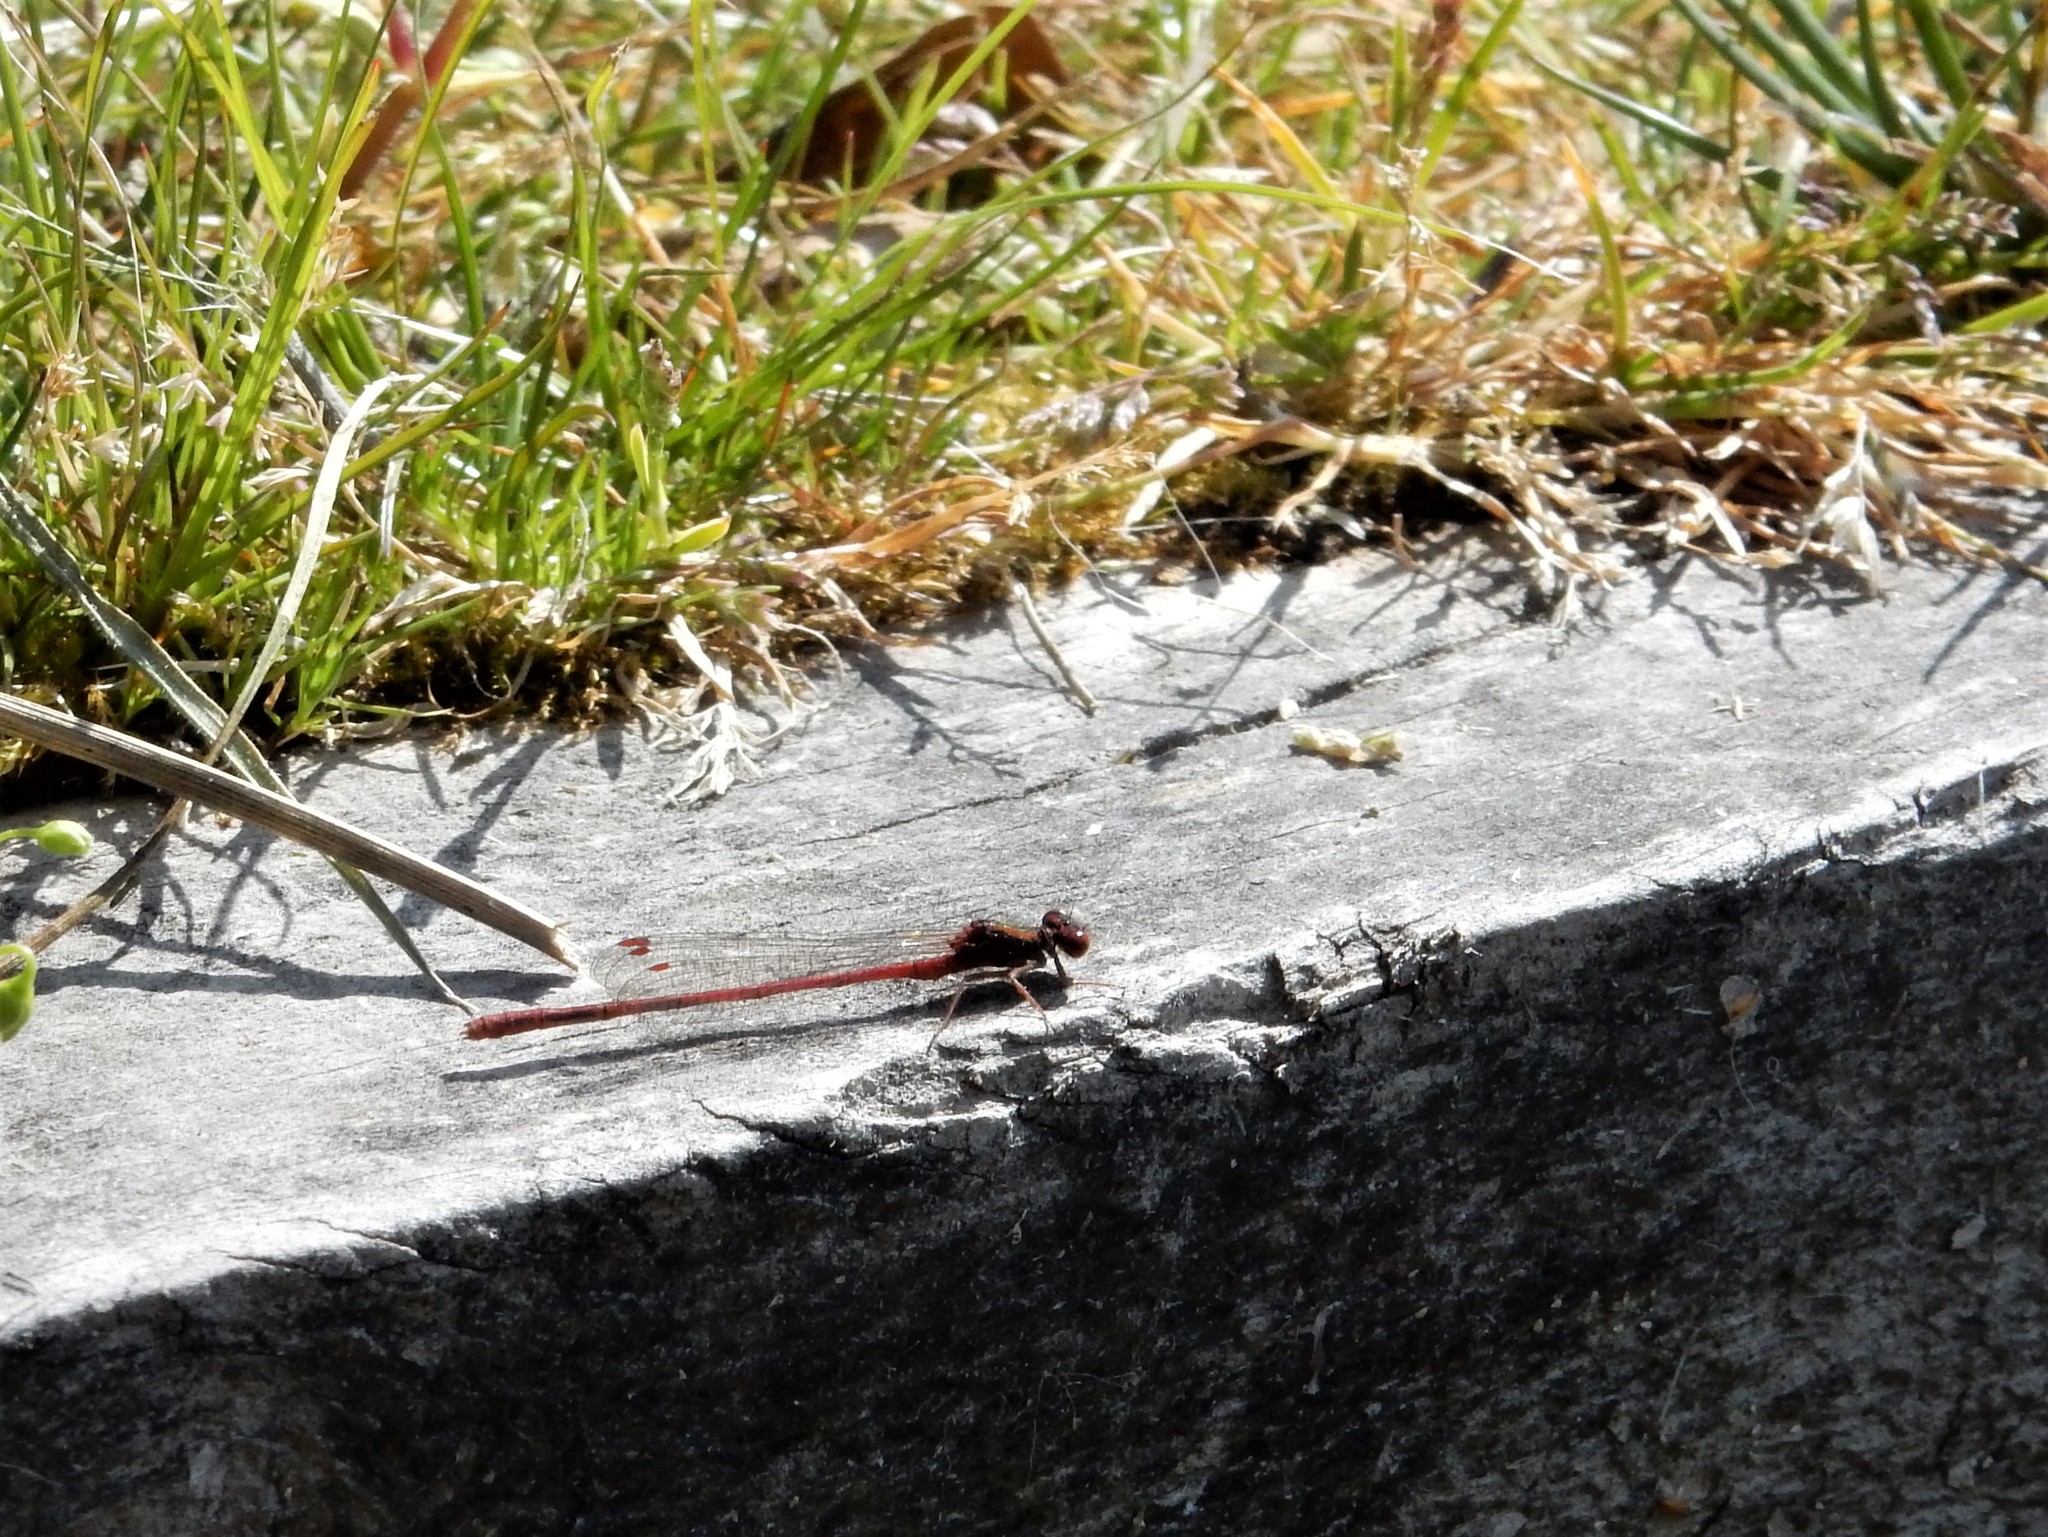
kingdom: Animalia
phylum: Arthropoda
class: Insecta
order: Odonata
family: Coenagrionidae
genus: Xanthocnemis
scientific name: Xanthocnemis zealandica
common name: Common redcoat damselfly
